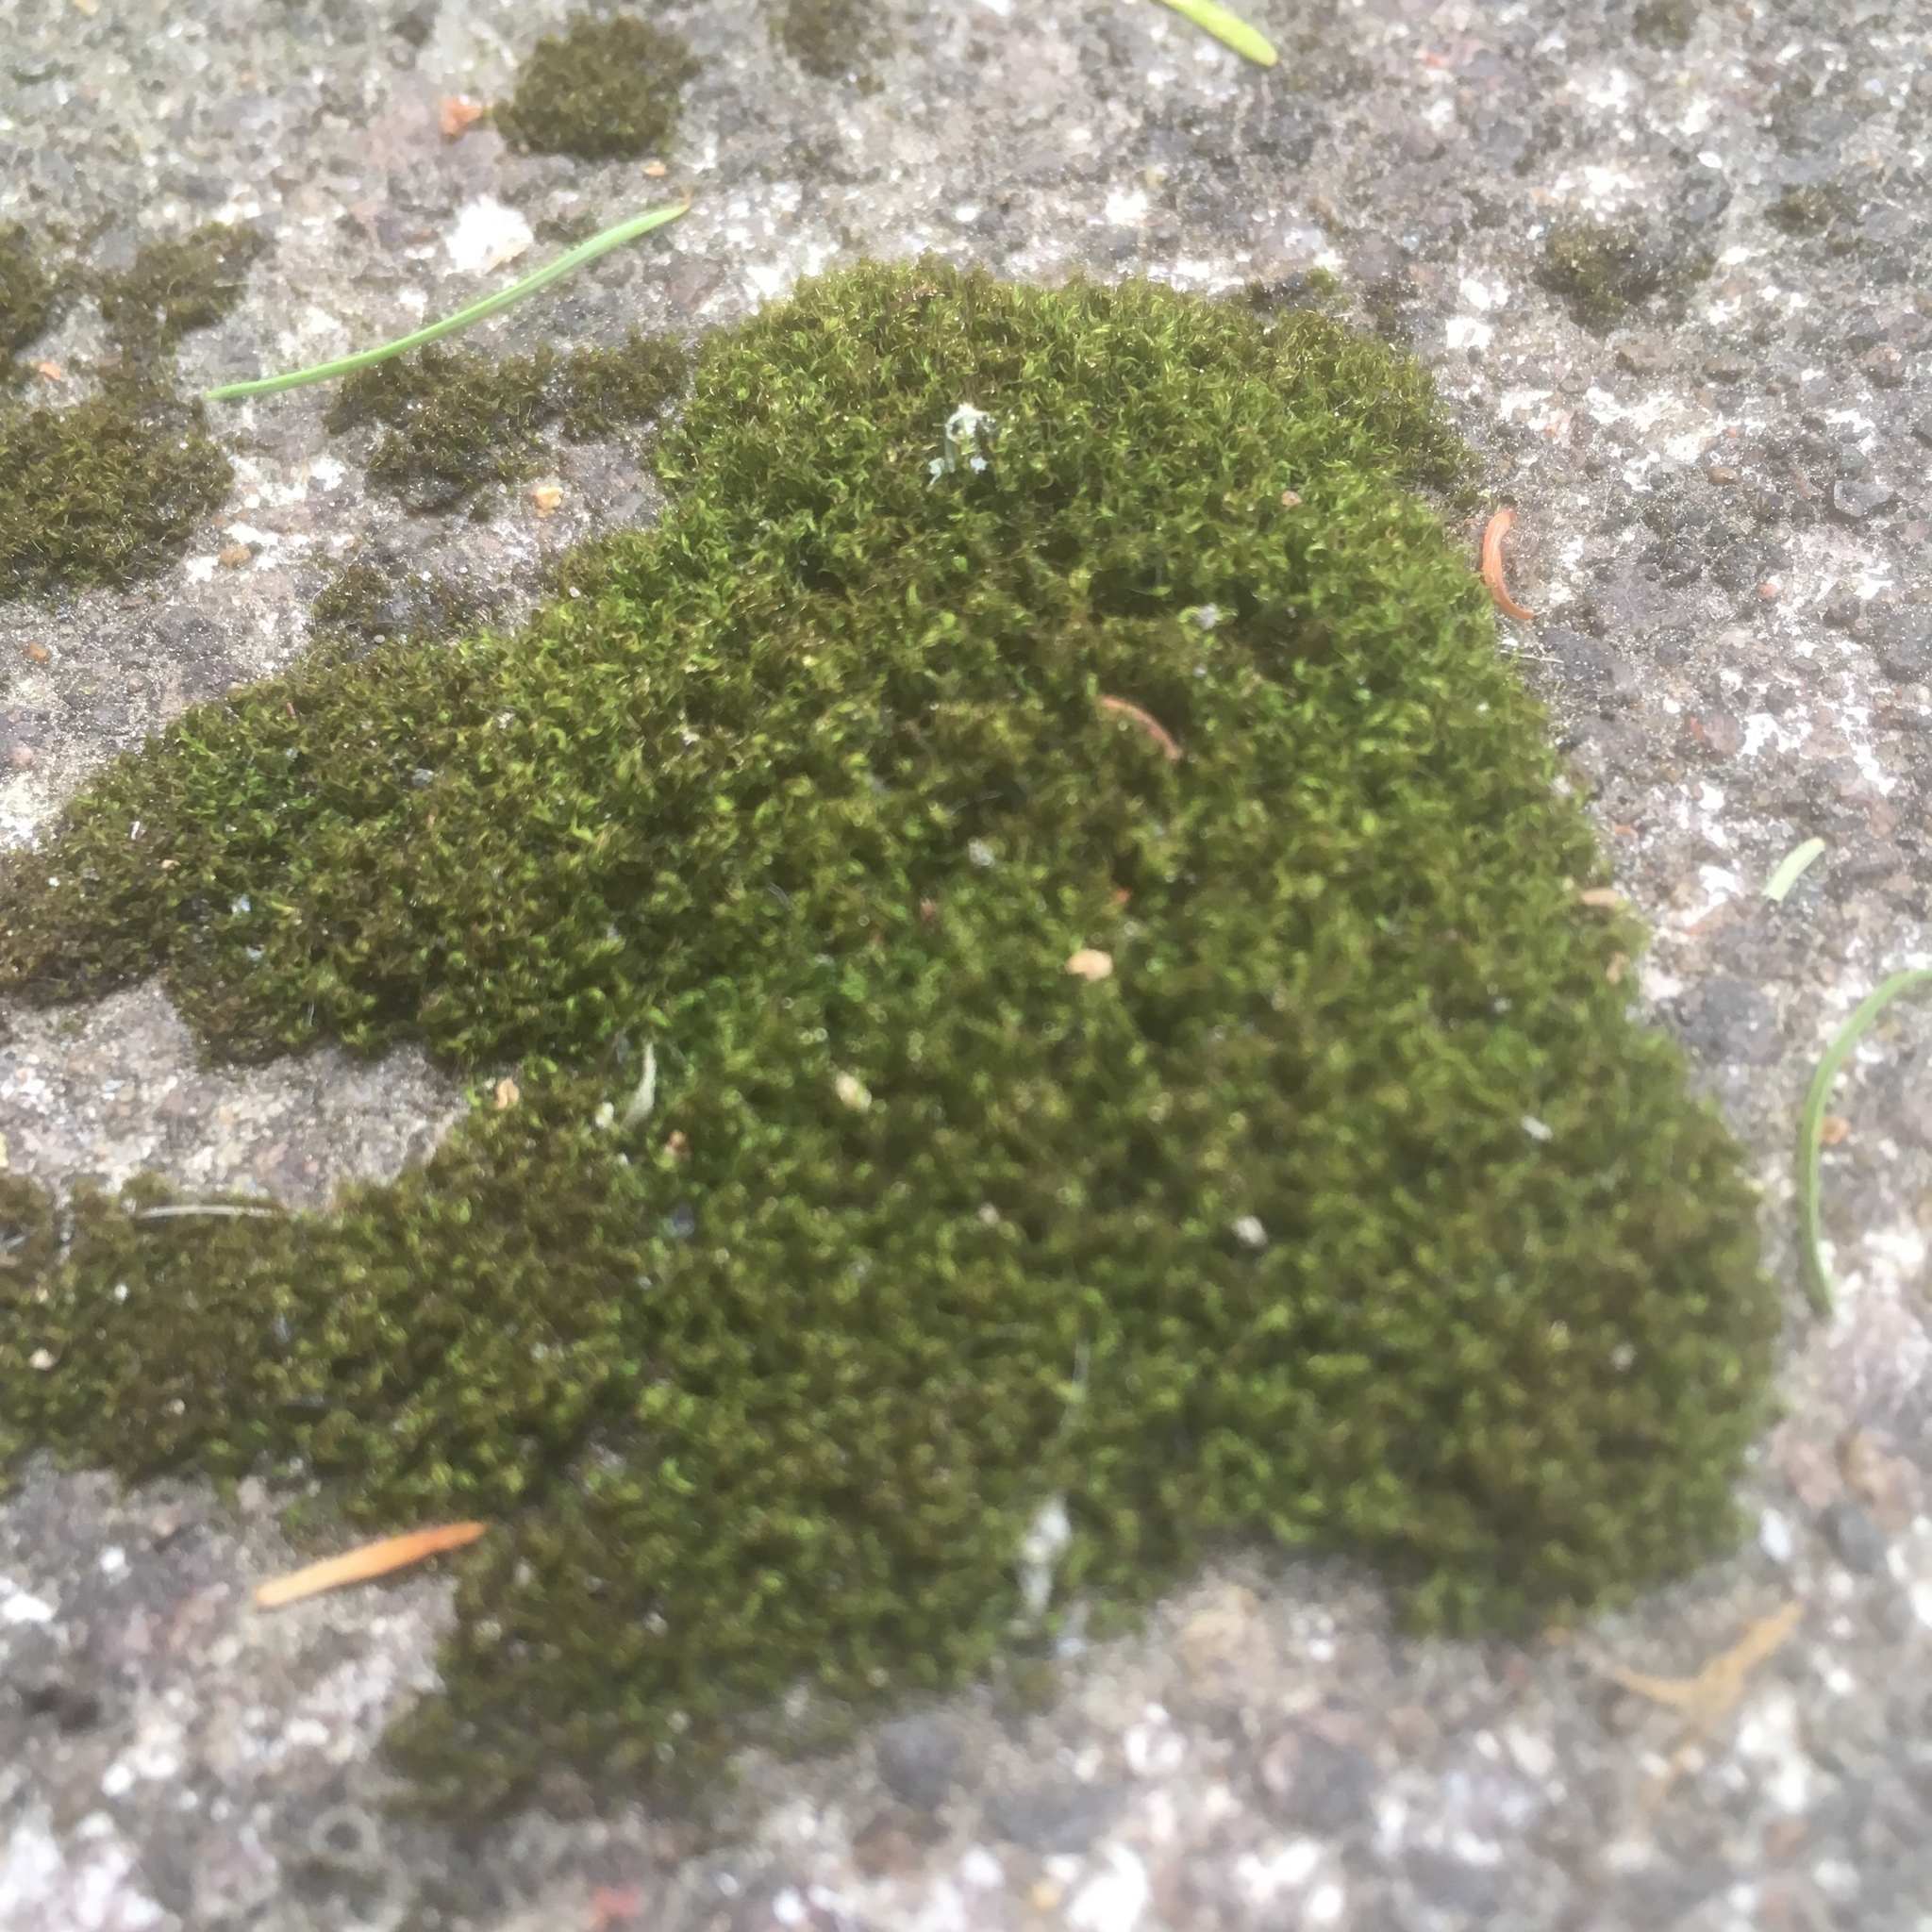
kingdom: Plantae
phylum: Bryophyta
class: Bryopsida
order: Dicranales
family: Ditrichaceae
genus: Ceratodon
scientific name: Ceratodon purpureus
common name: Redshank
